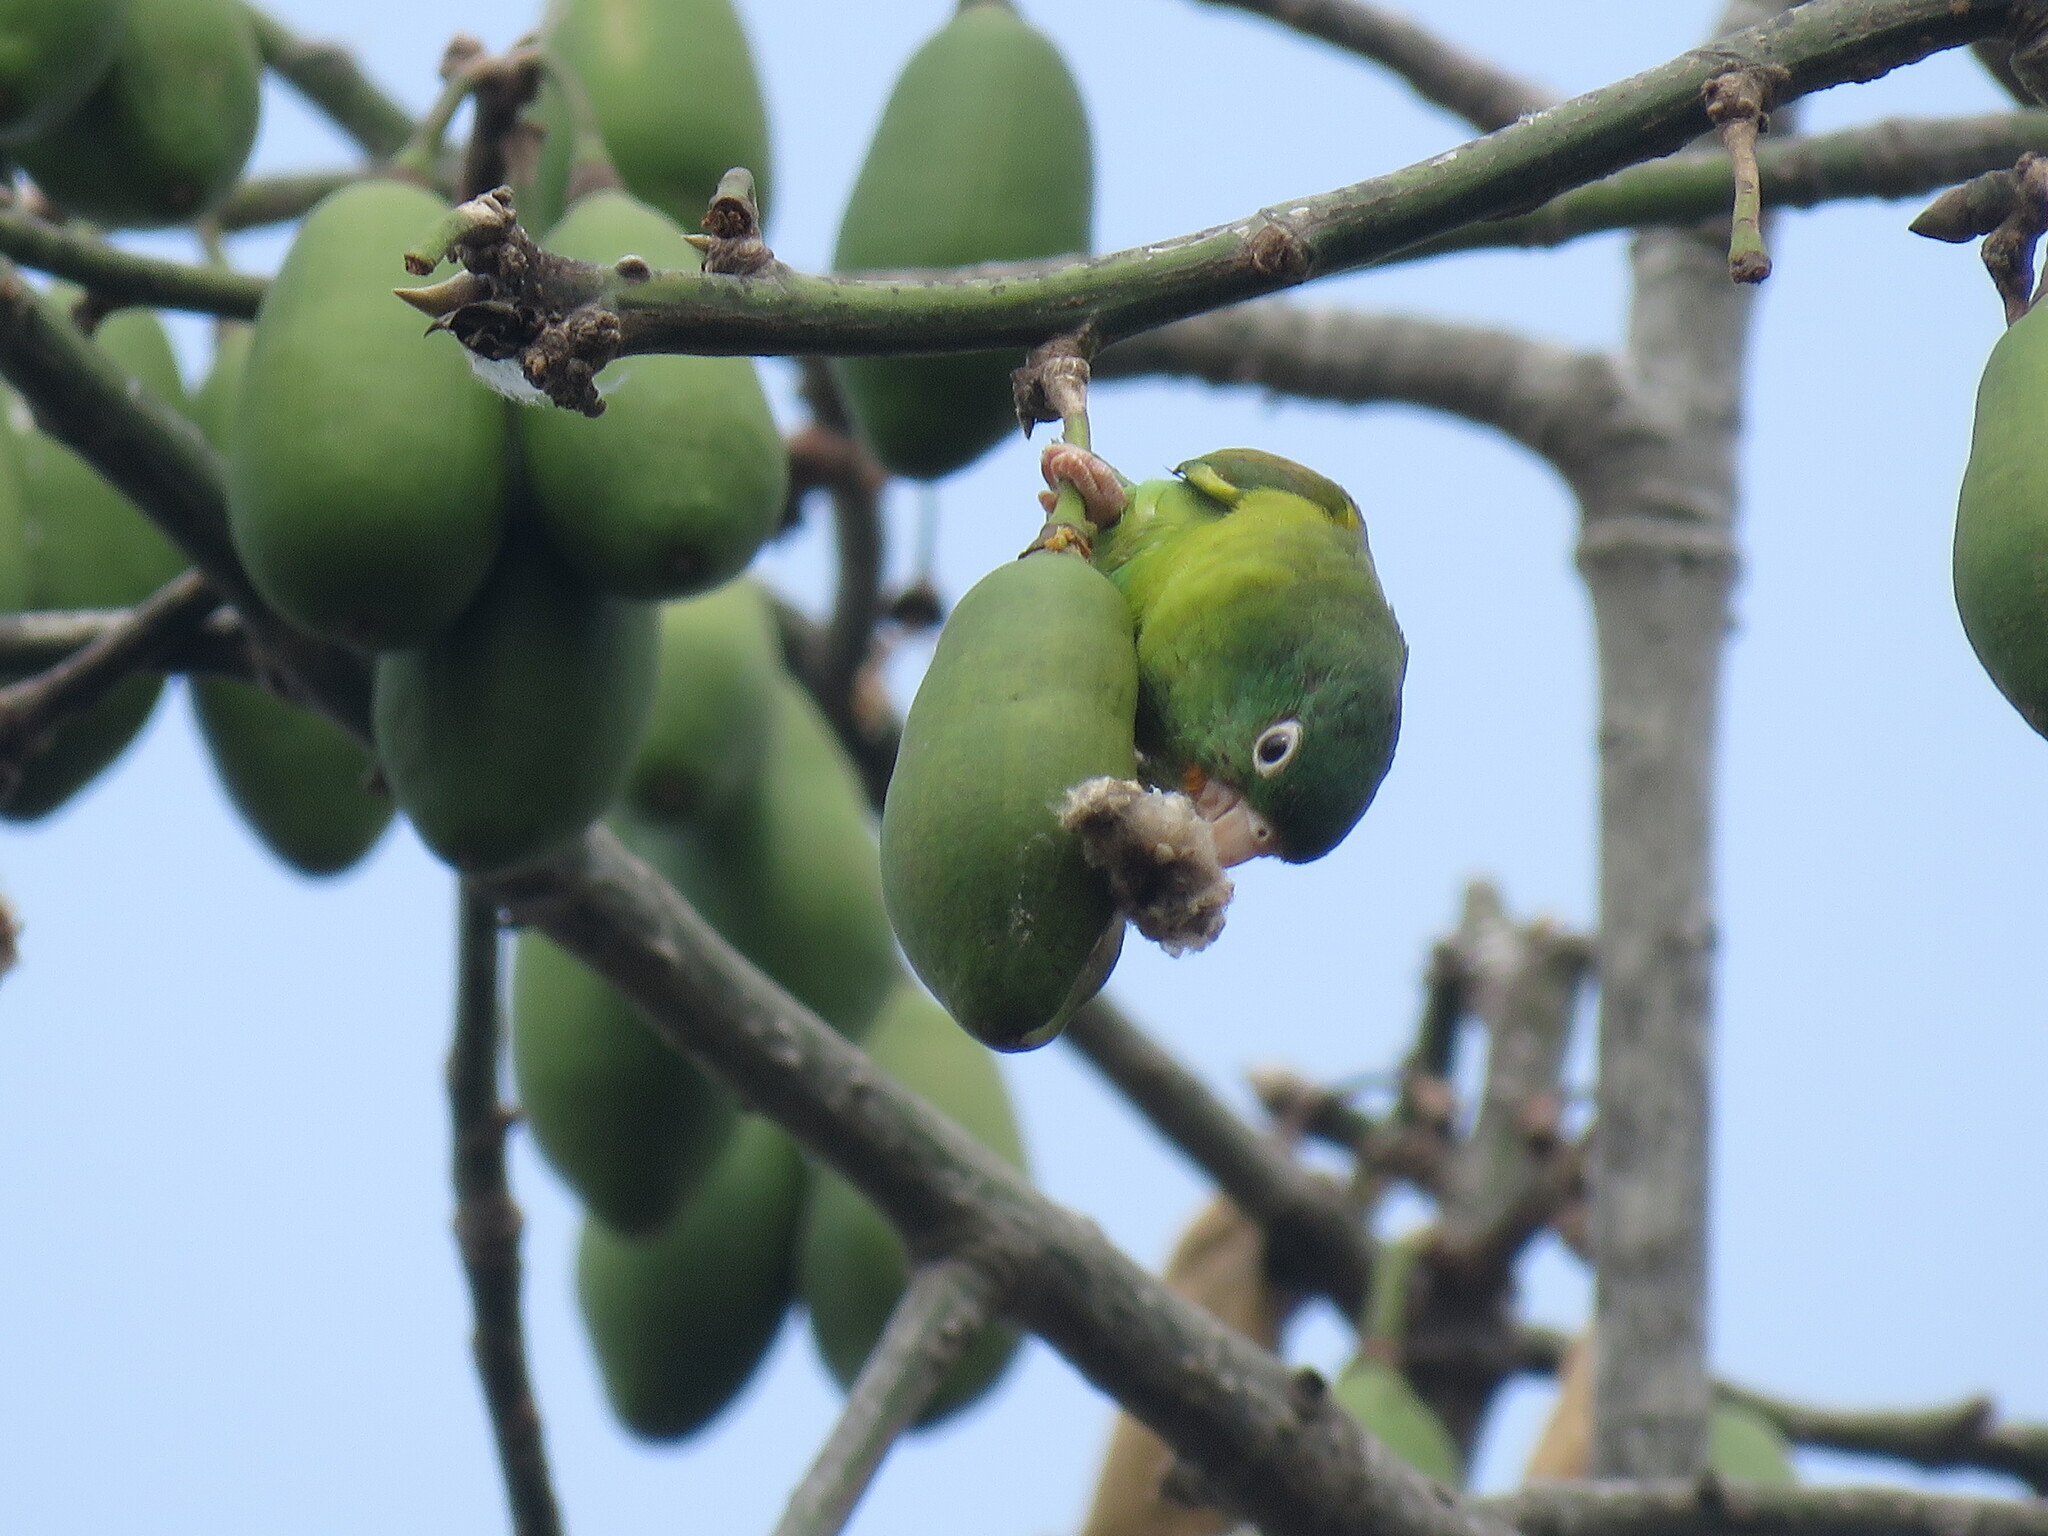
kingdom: Animalia
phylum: Chordata
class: Aves
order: Psittaciformes
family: Psittacidae
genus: Brotogeris
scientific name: Brotogeris jugularis
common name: Orange-chinned parakeet
